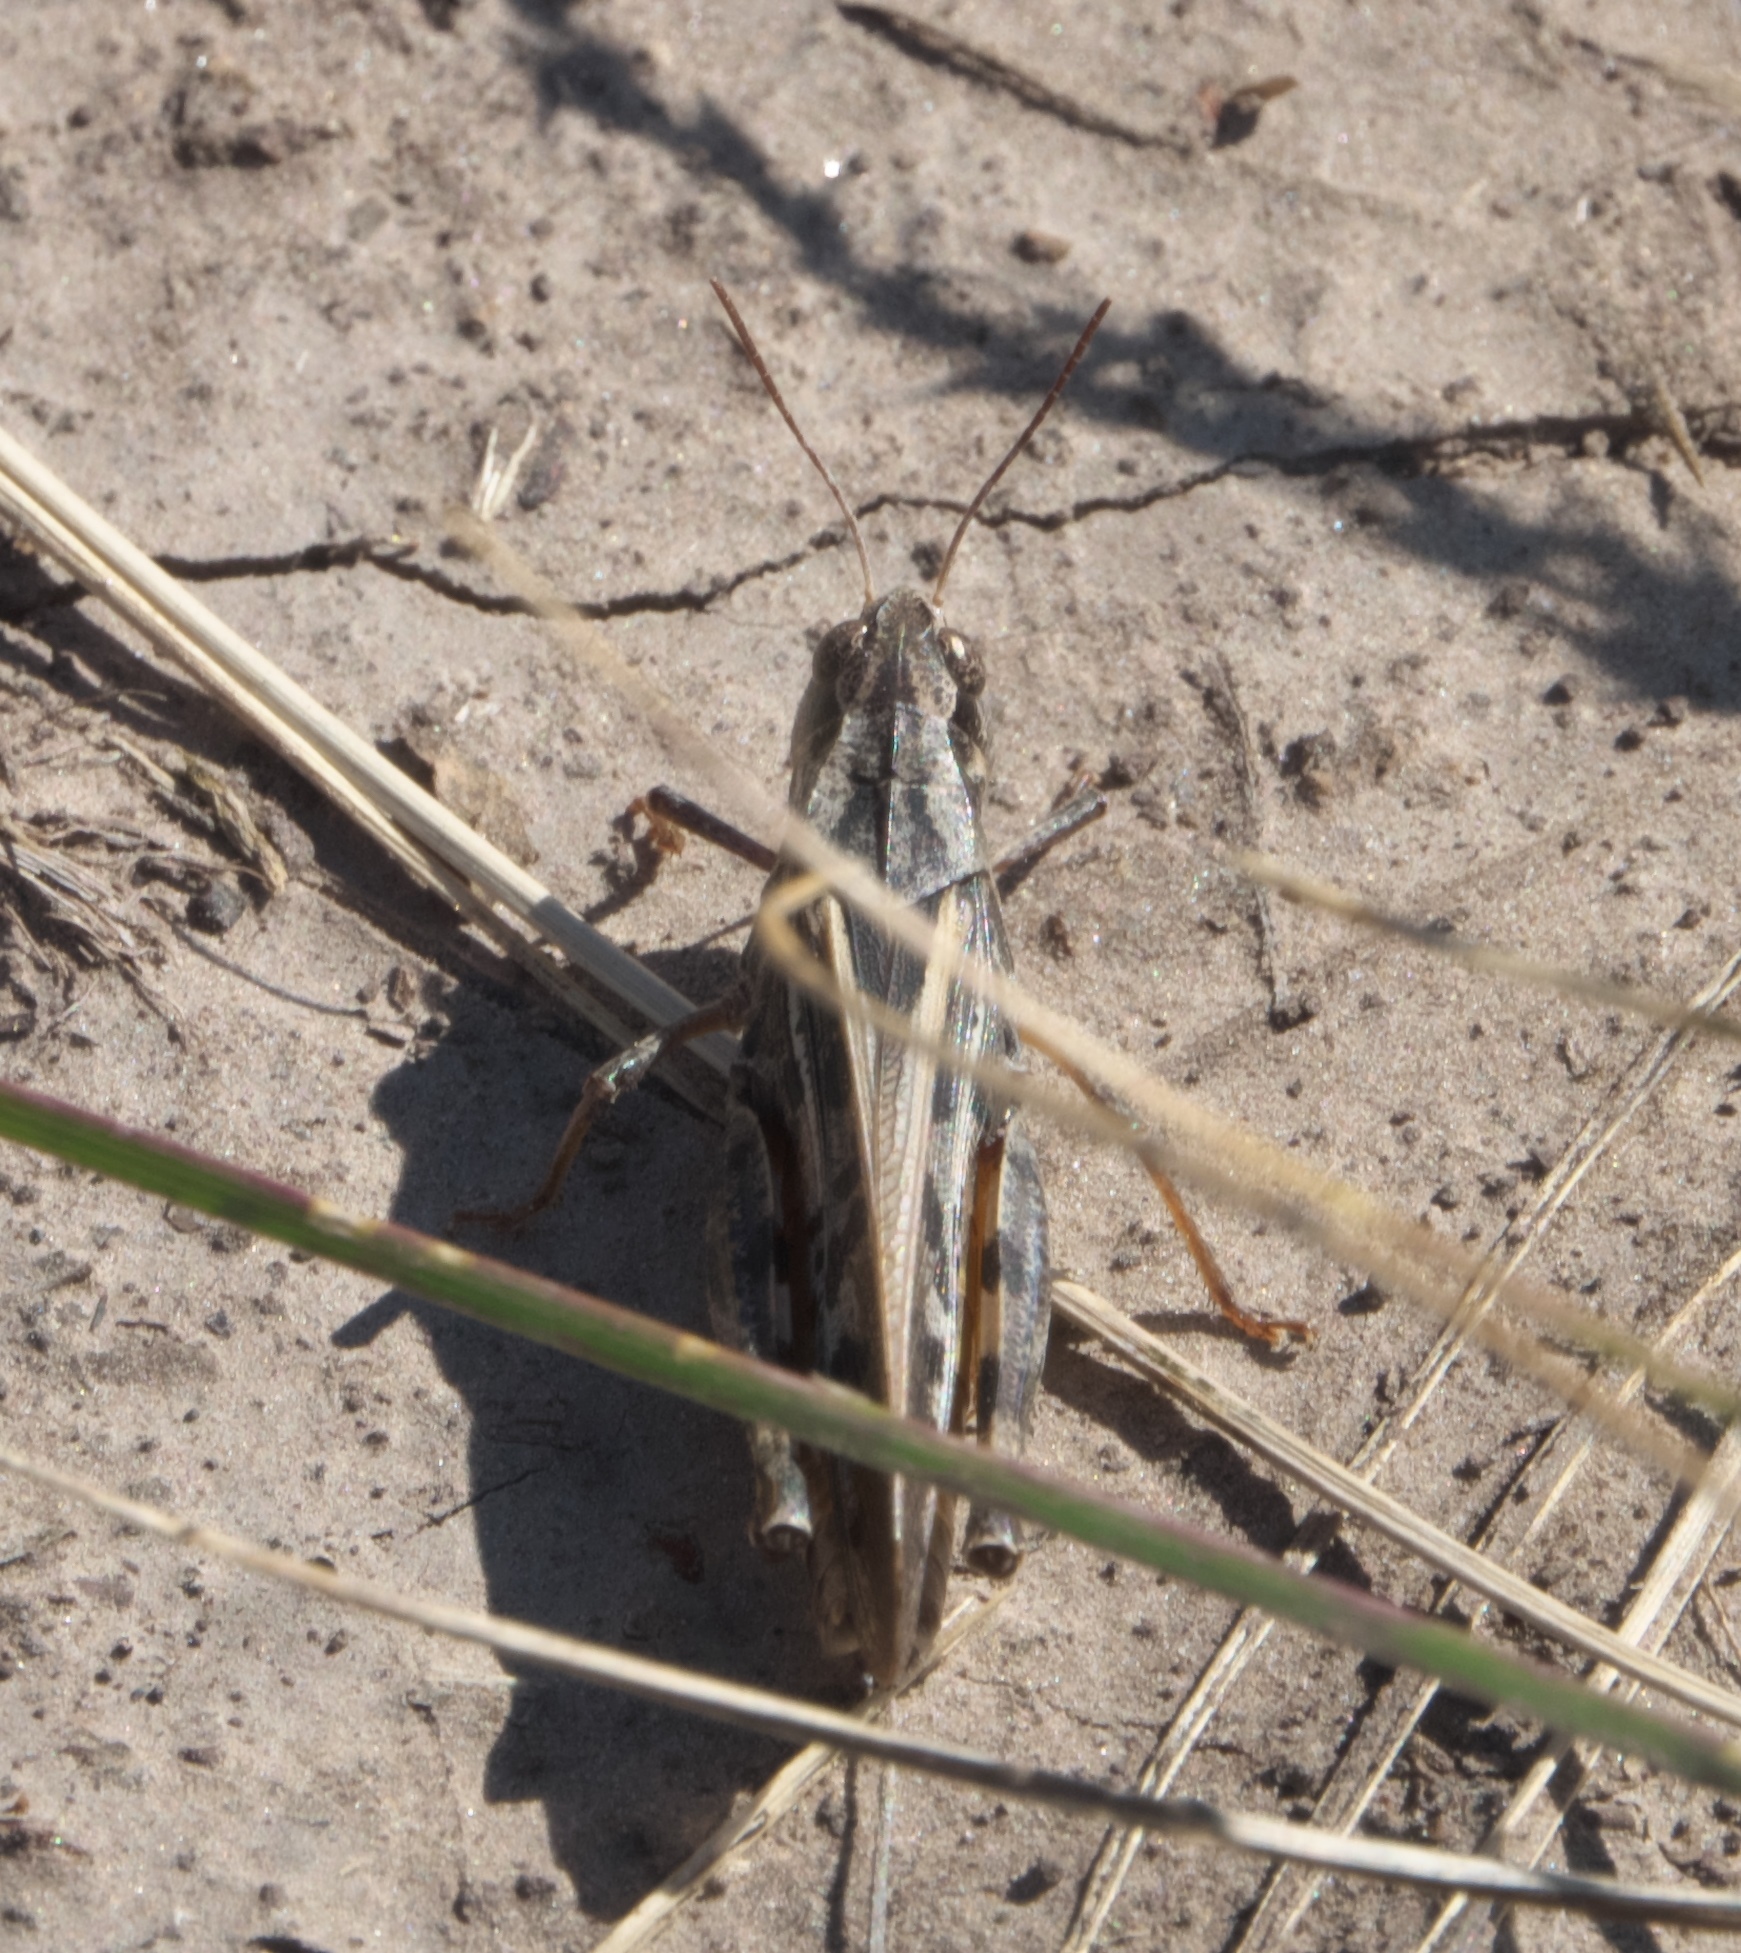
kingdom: Animalia
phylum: Arthropoda
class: Insecta
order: Orthoptera
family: Acrididae
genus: Camnula
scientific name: Camnula pellucida
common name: Clear-winged grasshopper
